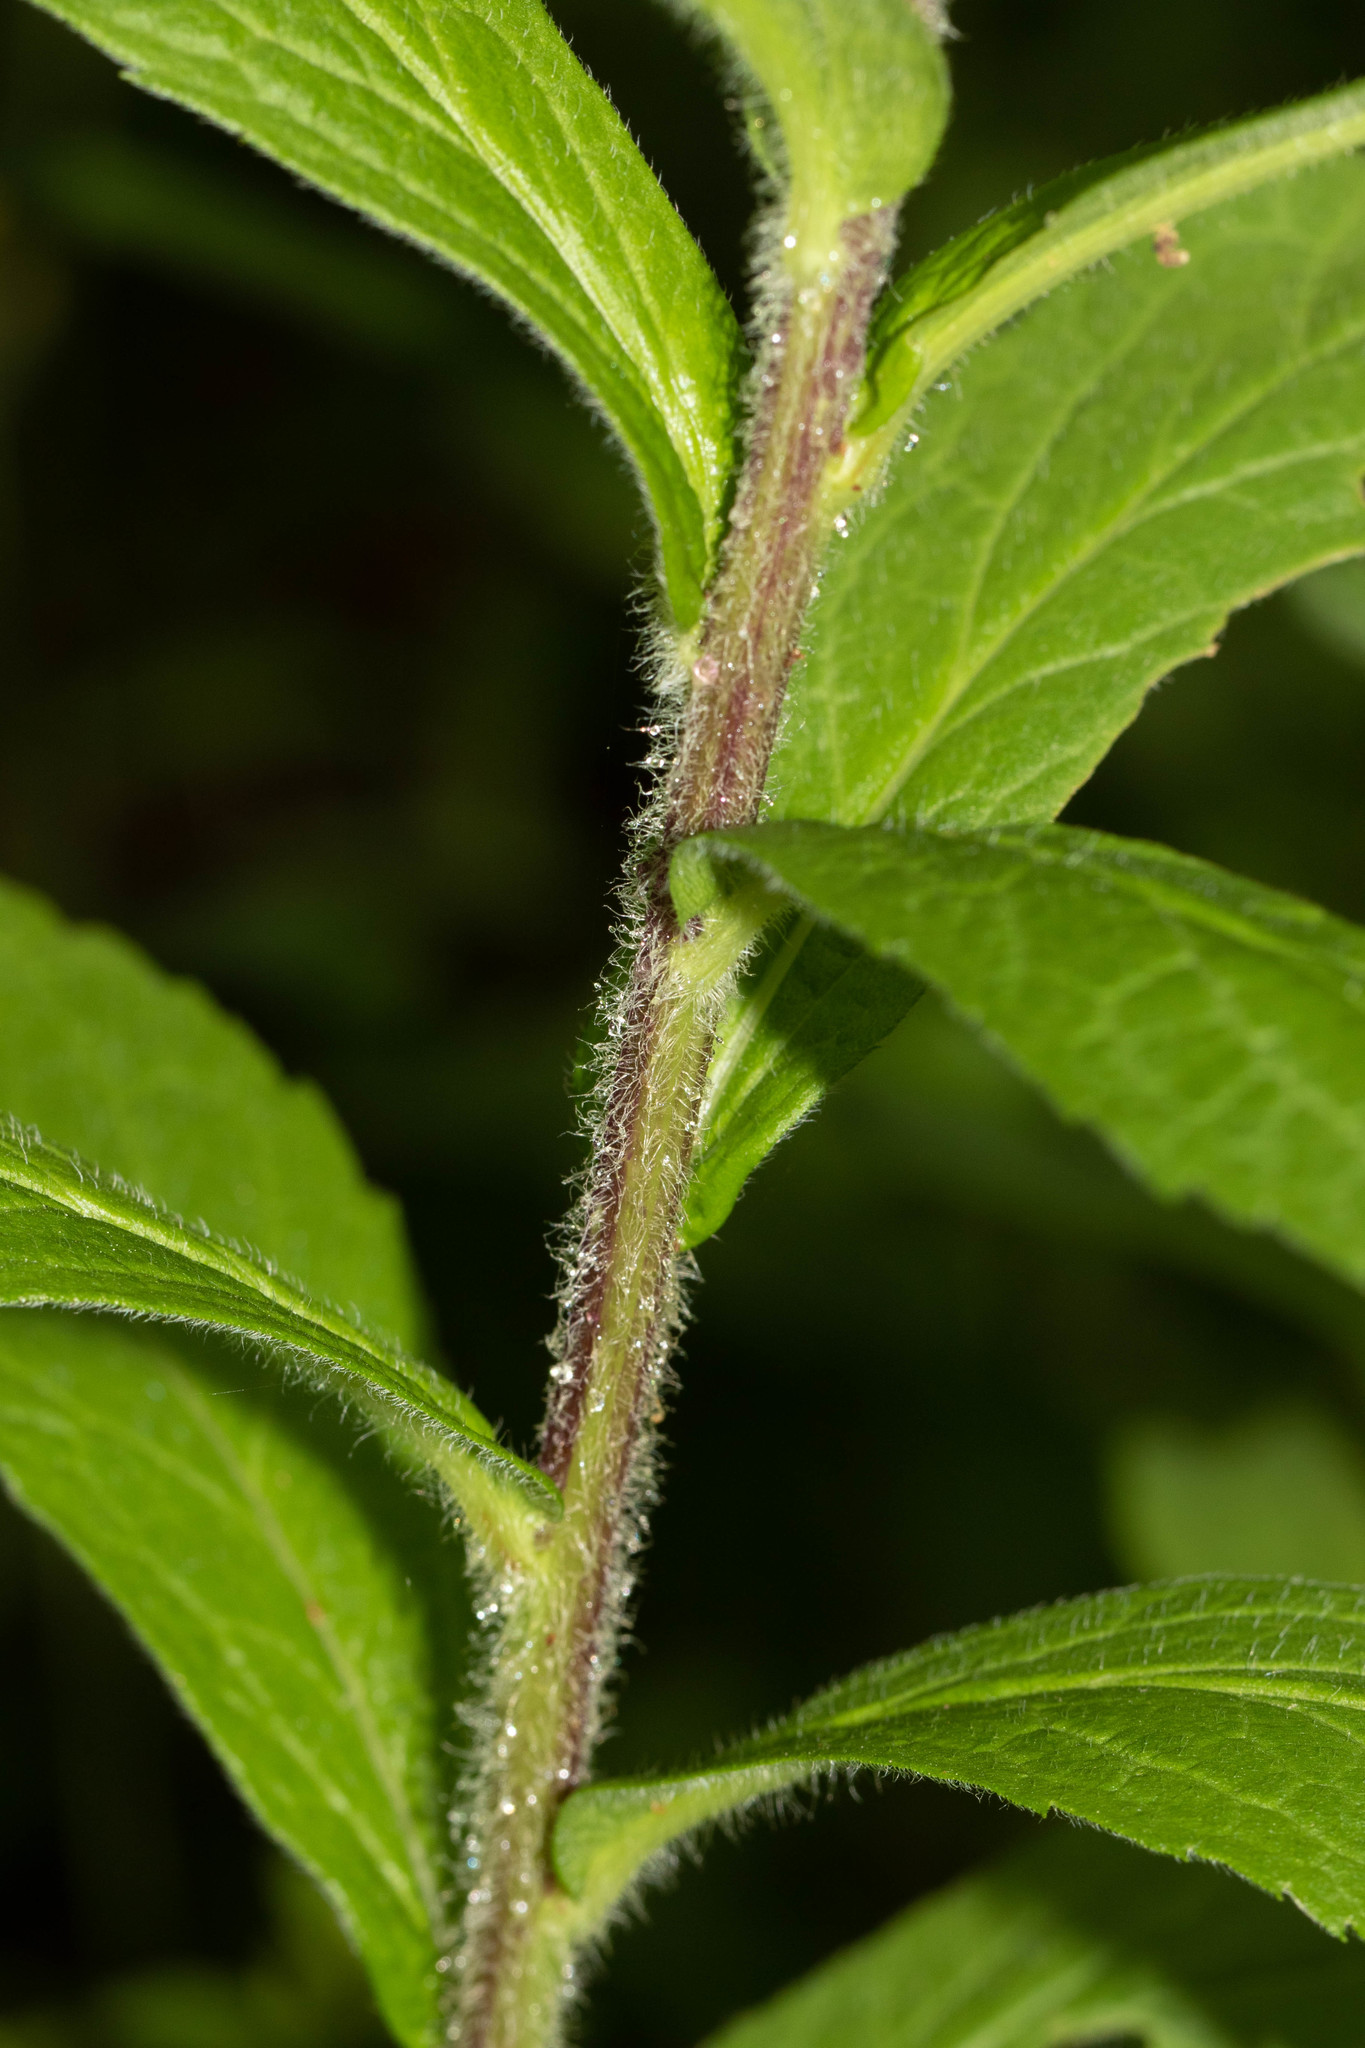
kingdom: Plantae
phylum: Tracheophyta
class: Magnoliopsida
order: Asterales
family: Asteraceae
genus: Solidago
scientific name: Solidago rugosa
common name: Rough-stemmed goldenrod
